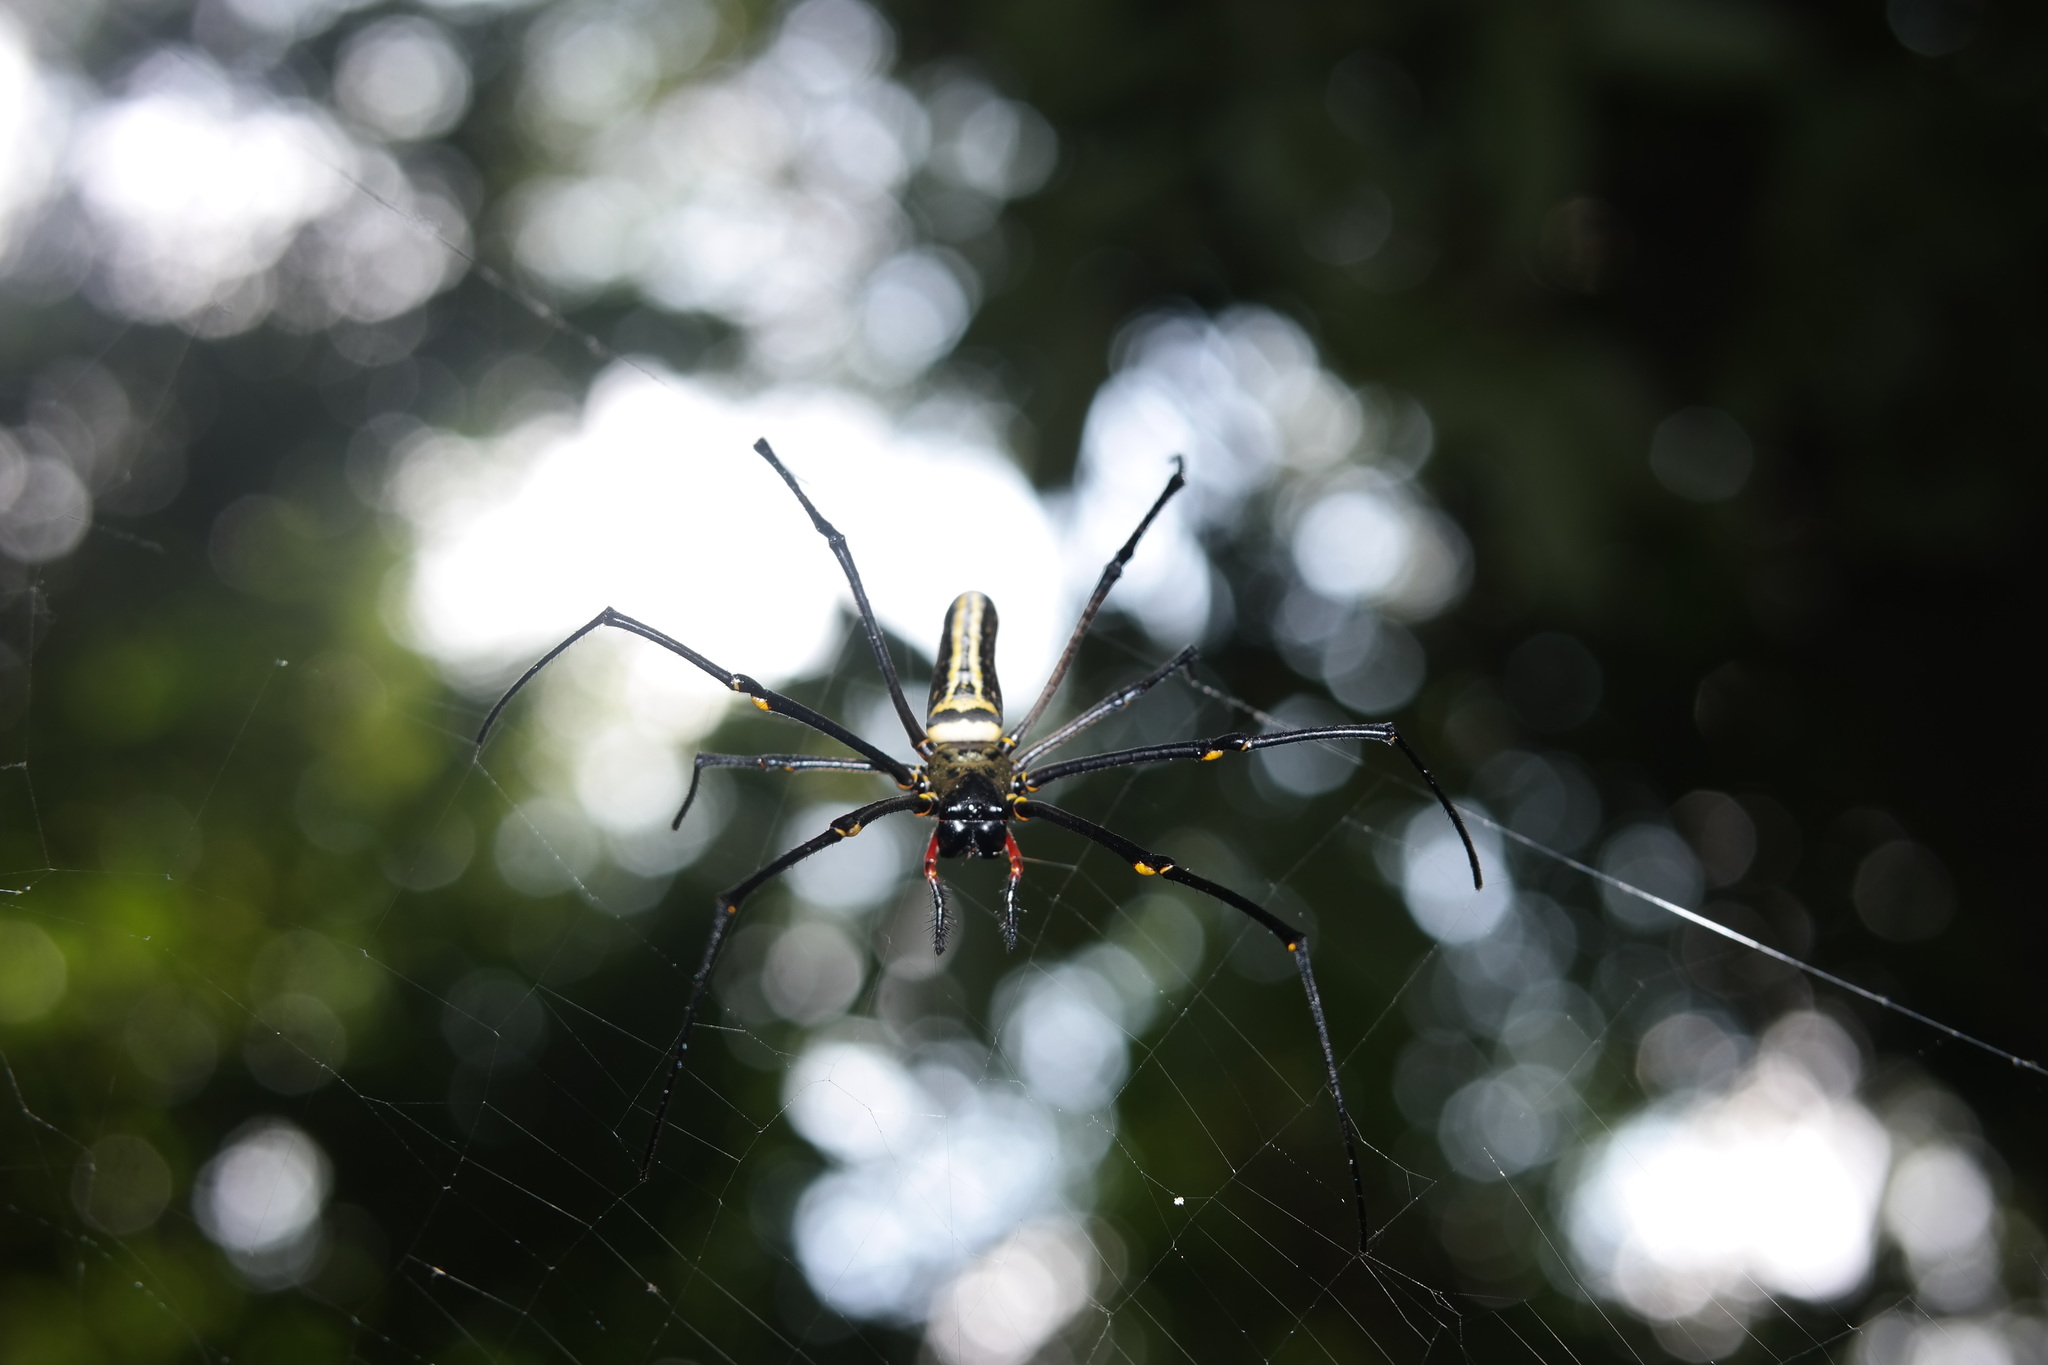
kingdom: Animalia
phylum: Arthropoda
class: Arachnida
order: Araneae
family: Araneidae
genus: Nephila
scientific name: Nephila pilipes
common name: Giant golden orb weaver
